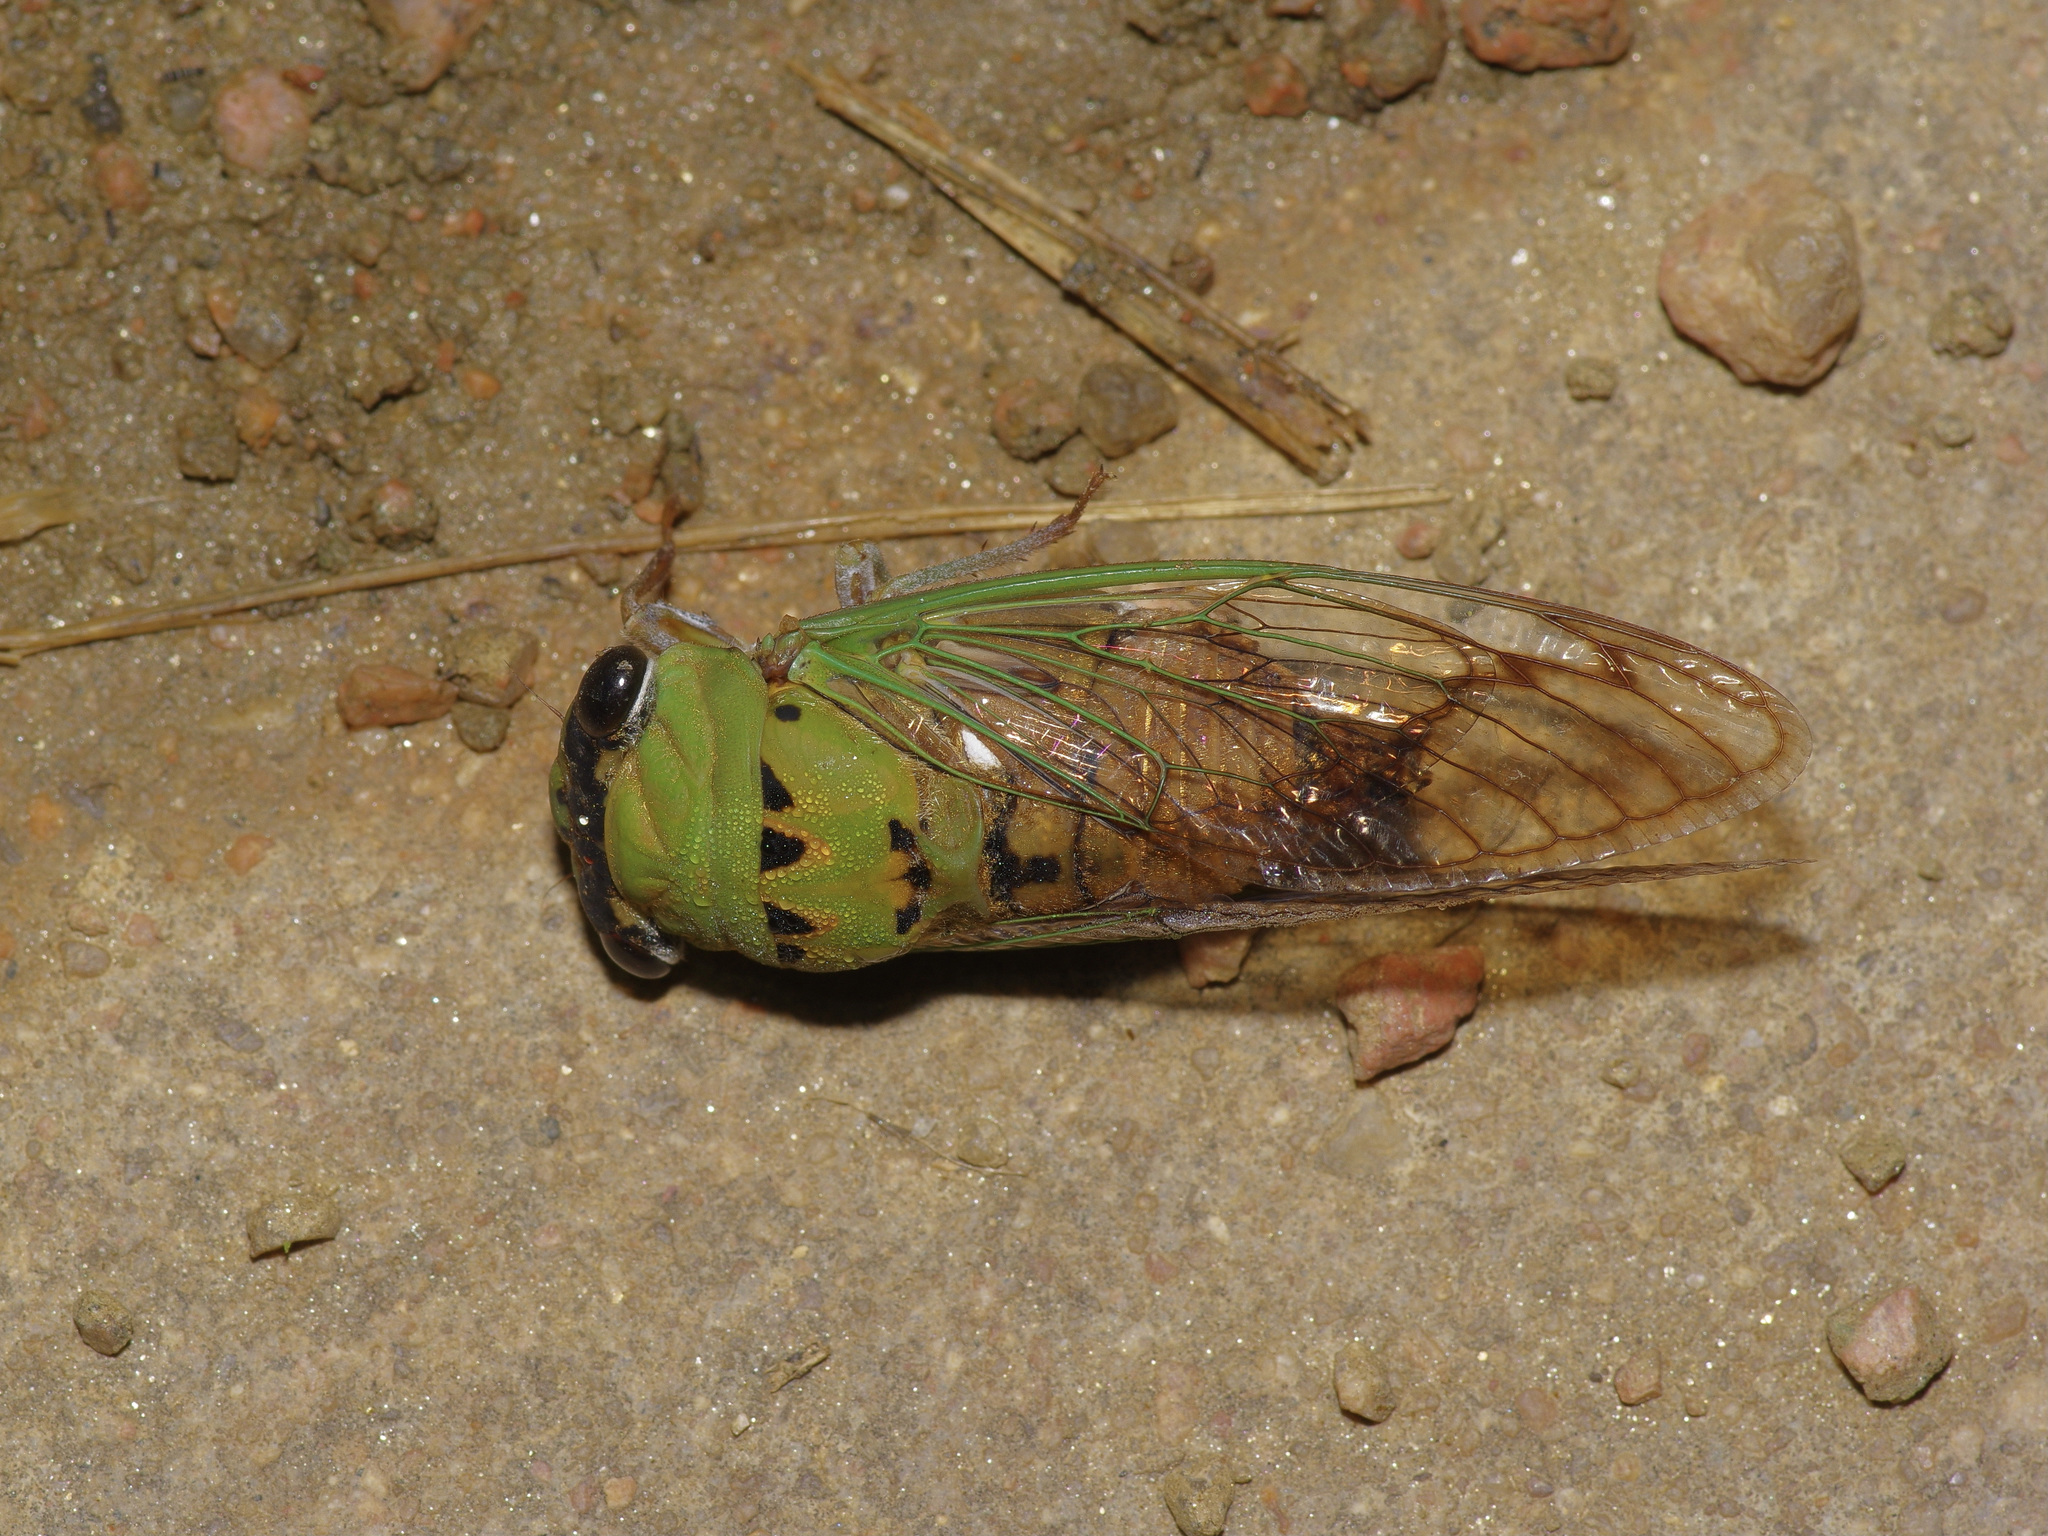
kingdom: Animalia
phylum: Arthropoda
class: Insecta
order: Hemiptera
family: Cicadidae
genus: Neotibicen
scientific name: Neotibicen superbus
